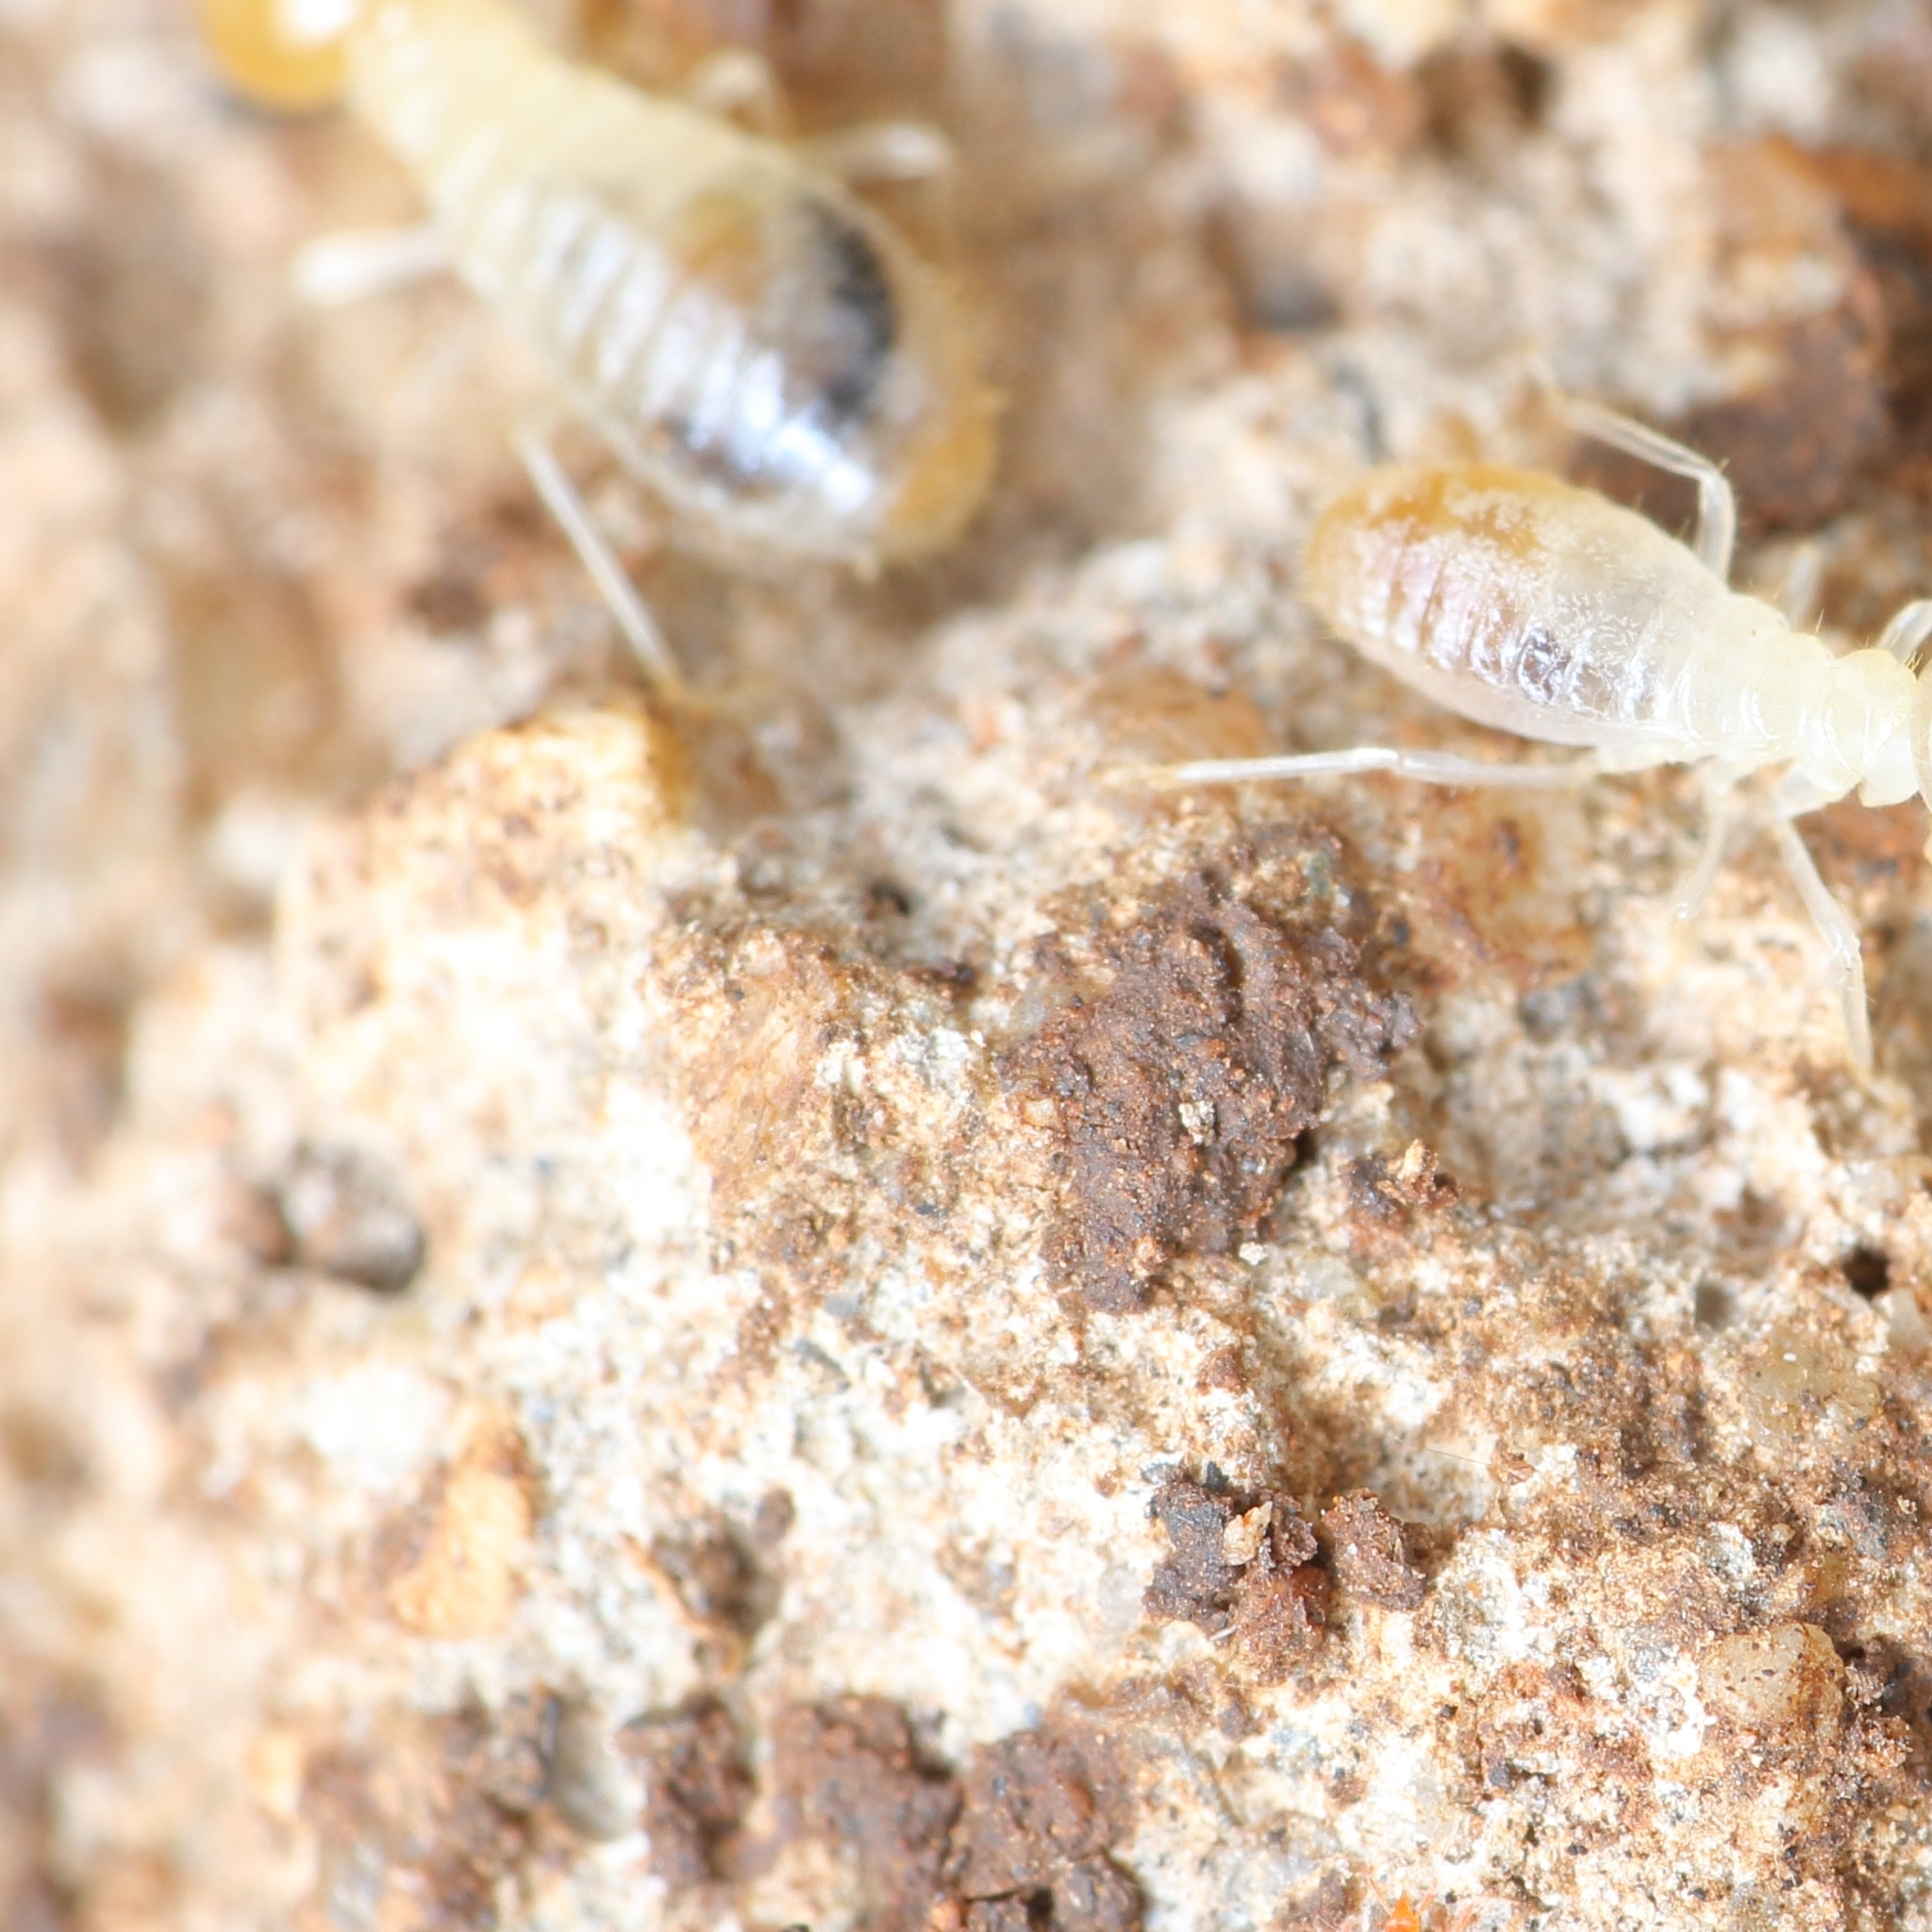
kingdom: Animalia
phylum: Arthropoda
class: Insecta
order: Blattodea
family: Termitidae
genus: Ancistrotermes
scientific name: Ancistrotermes latinotus
